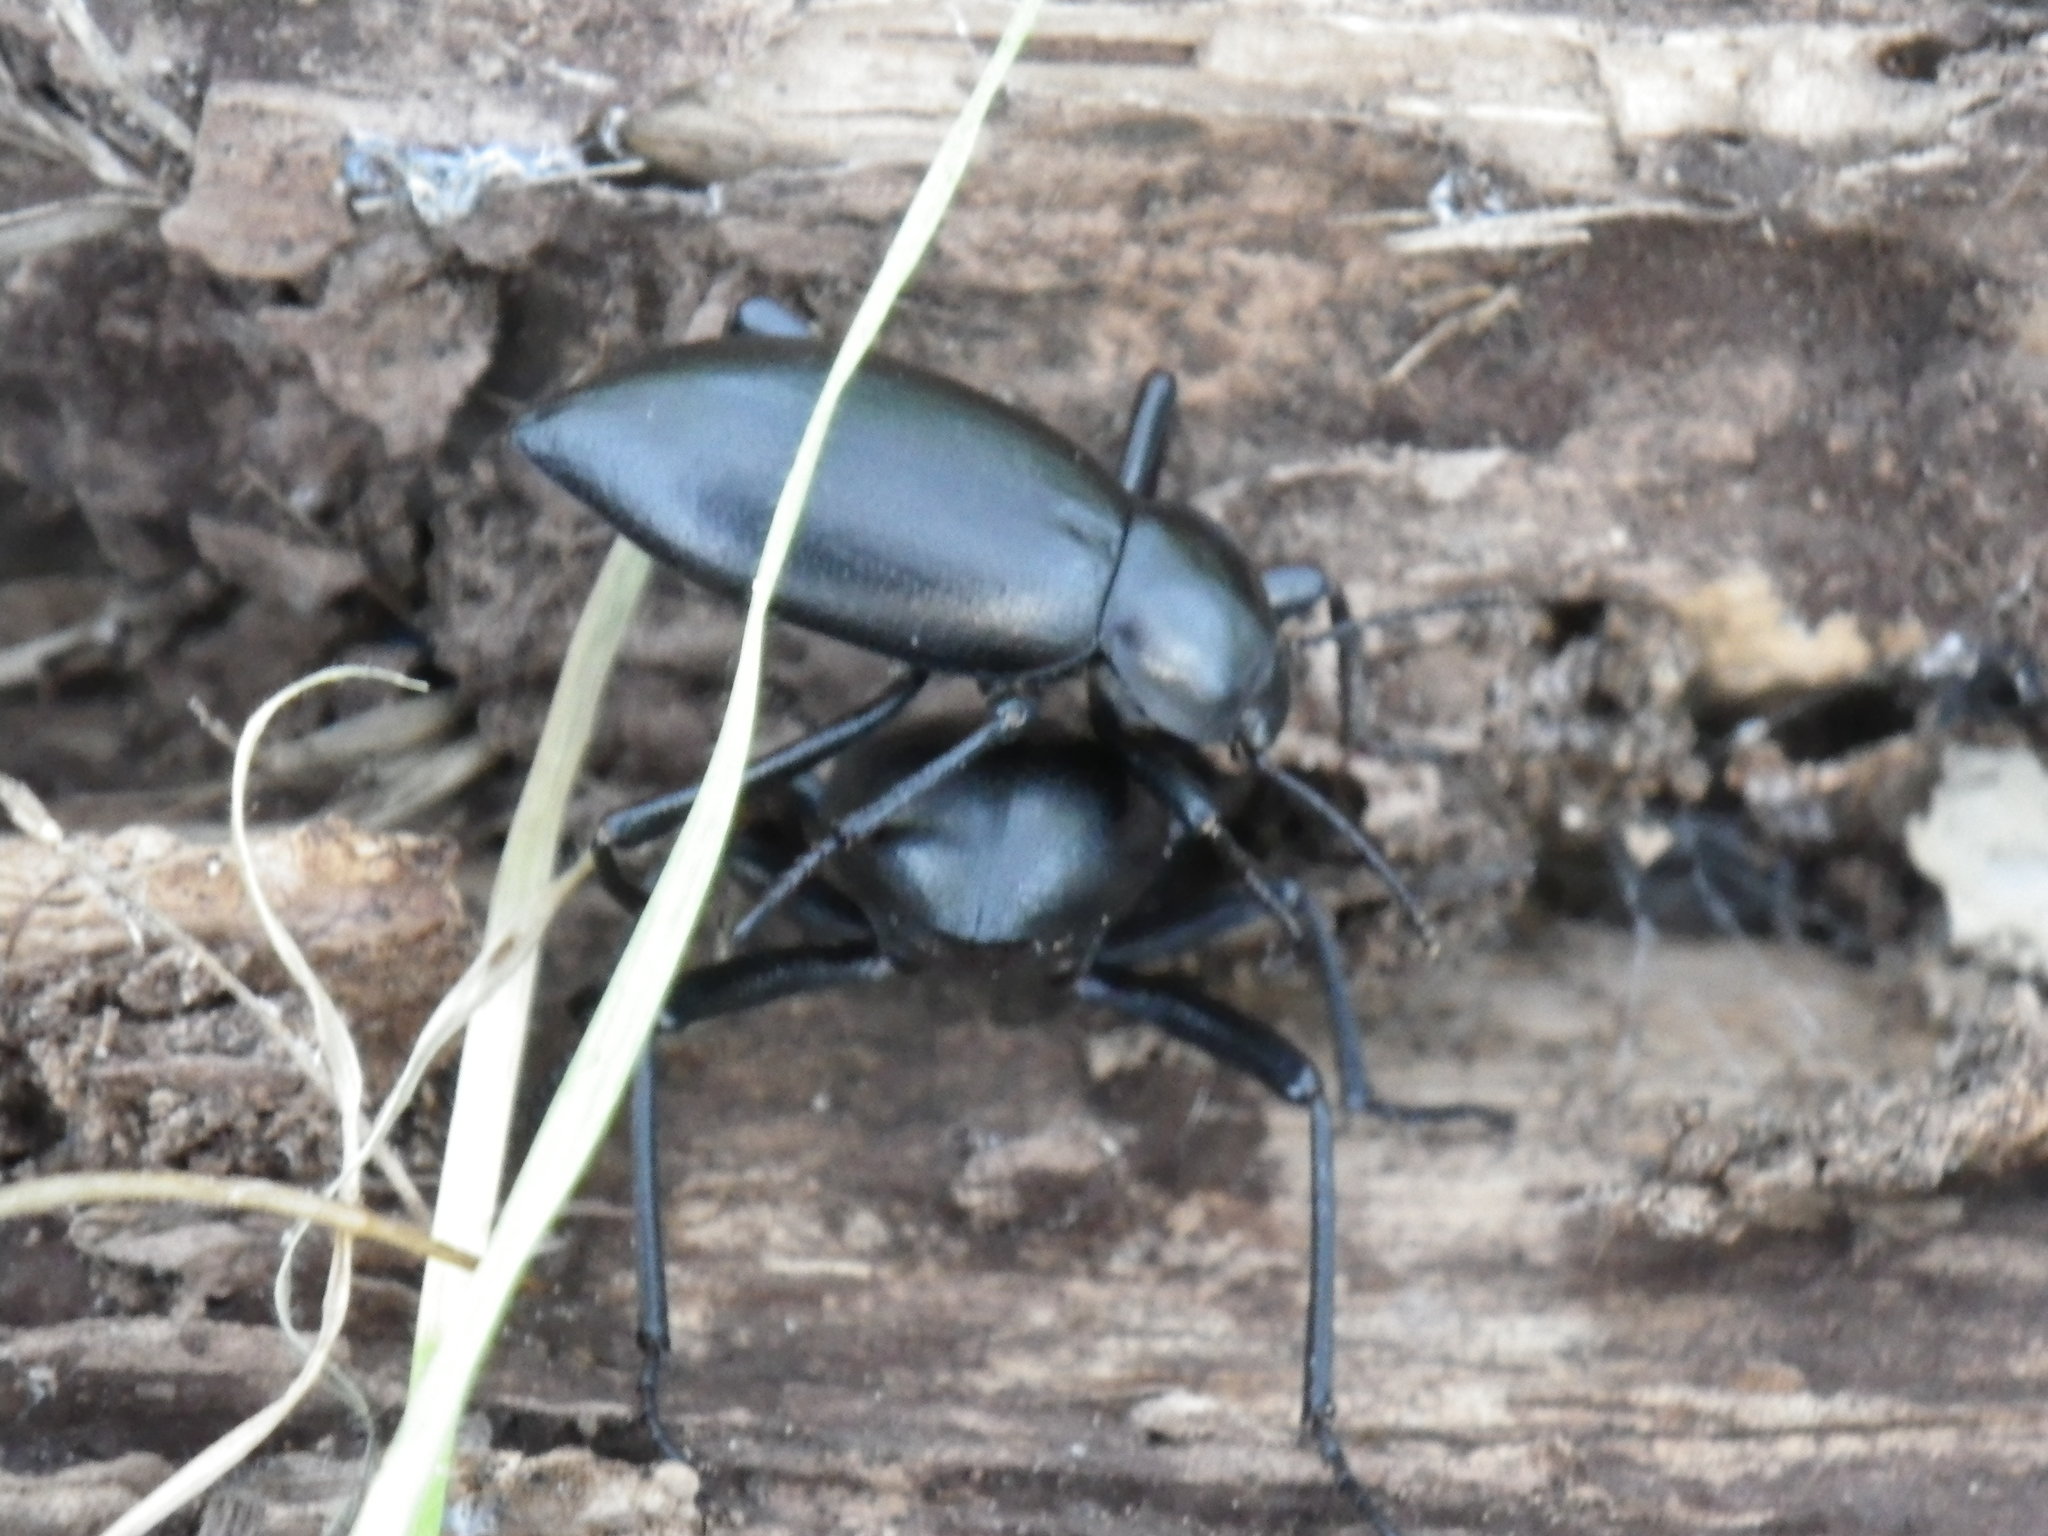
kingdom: Animalia
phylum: Arthropoda
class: Insecta
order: Coleoptera
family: Tenebrionidae
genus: Eleodes
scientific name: Eleodes dentipes
